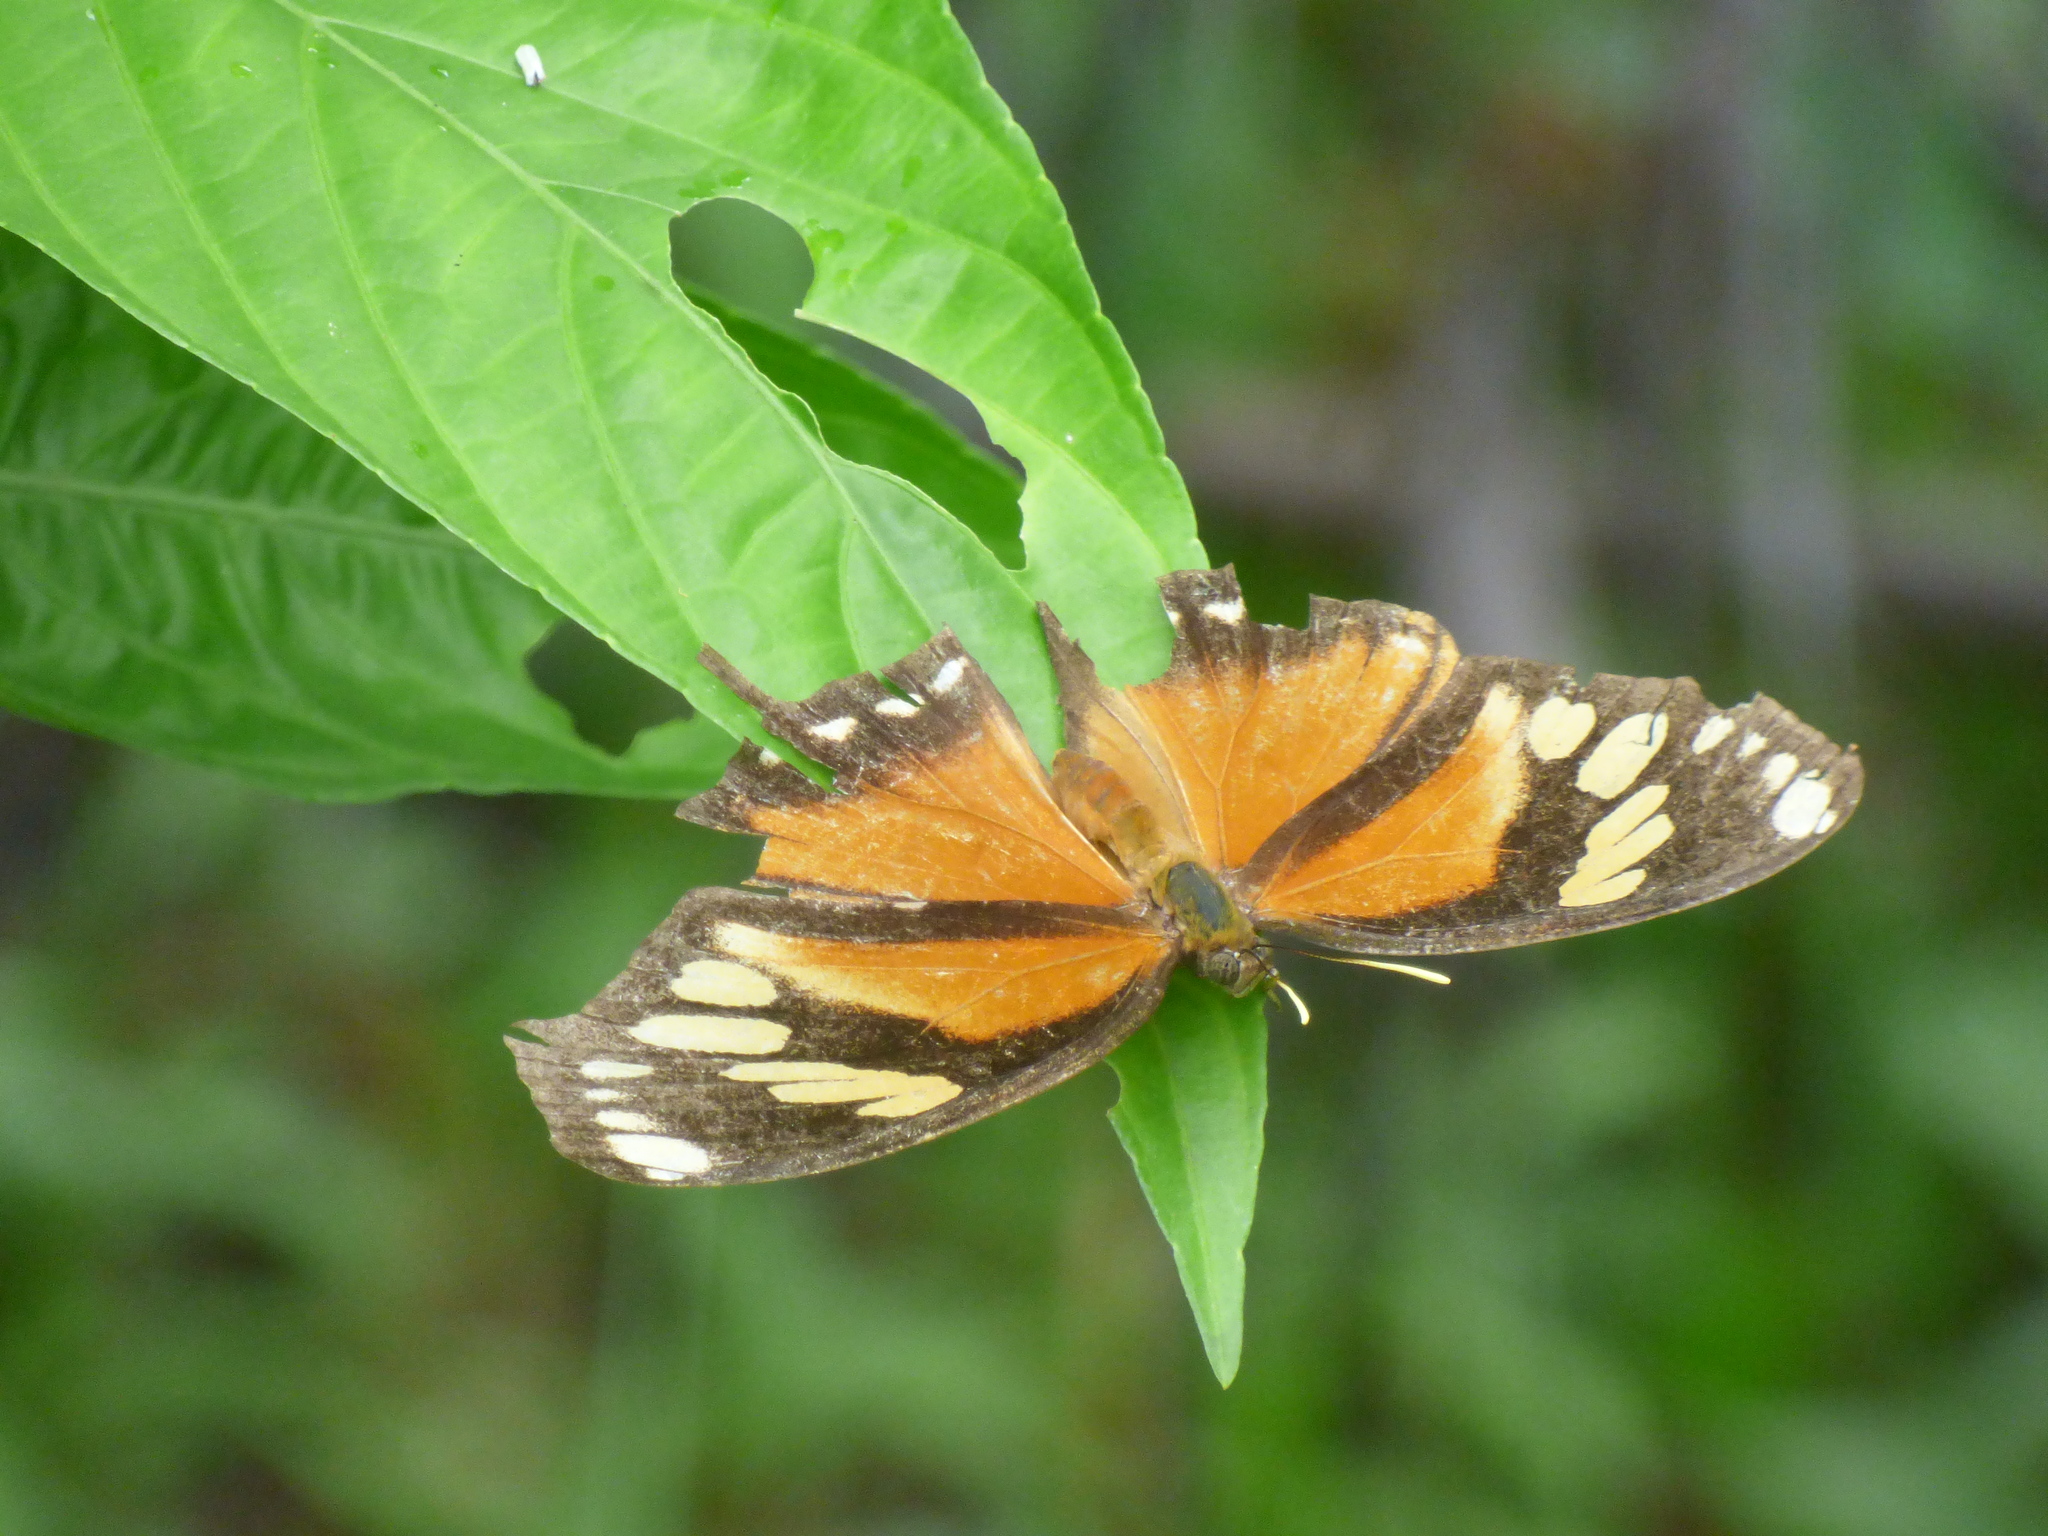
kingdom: Animalia
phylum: Arthropoda
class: Insecta
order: Lepidoptera
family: Nymphalidae
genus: Consul
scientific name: Consul fabius
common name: Tiger leafwing
